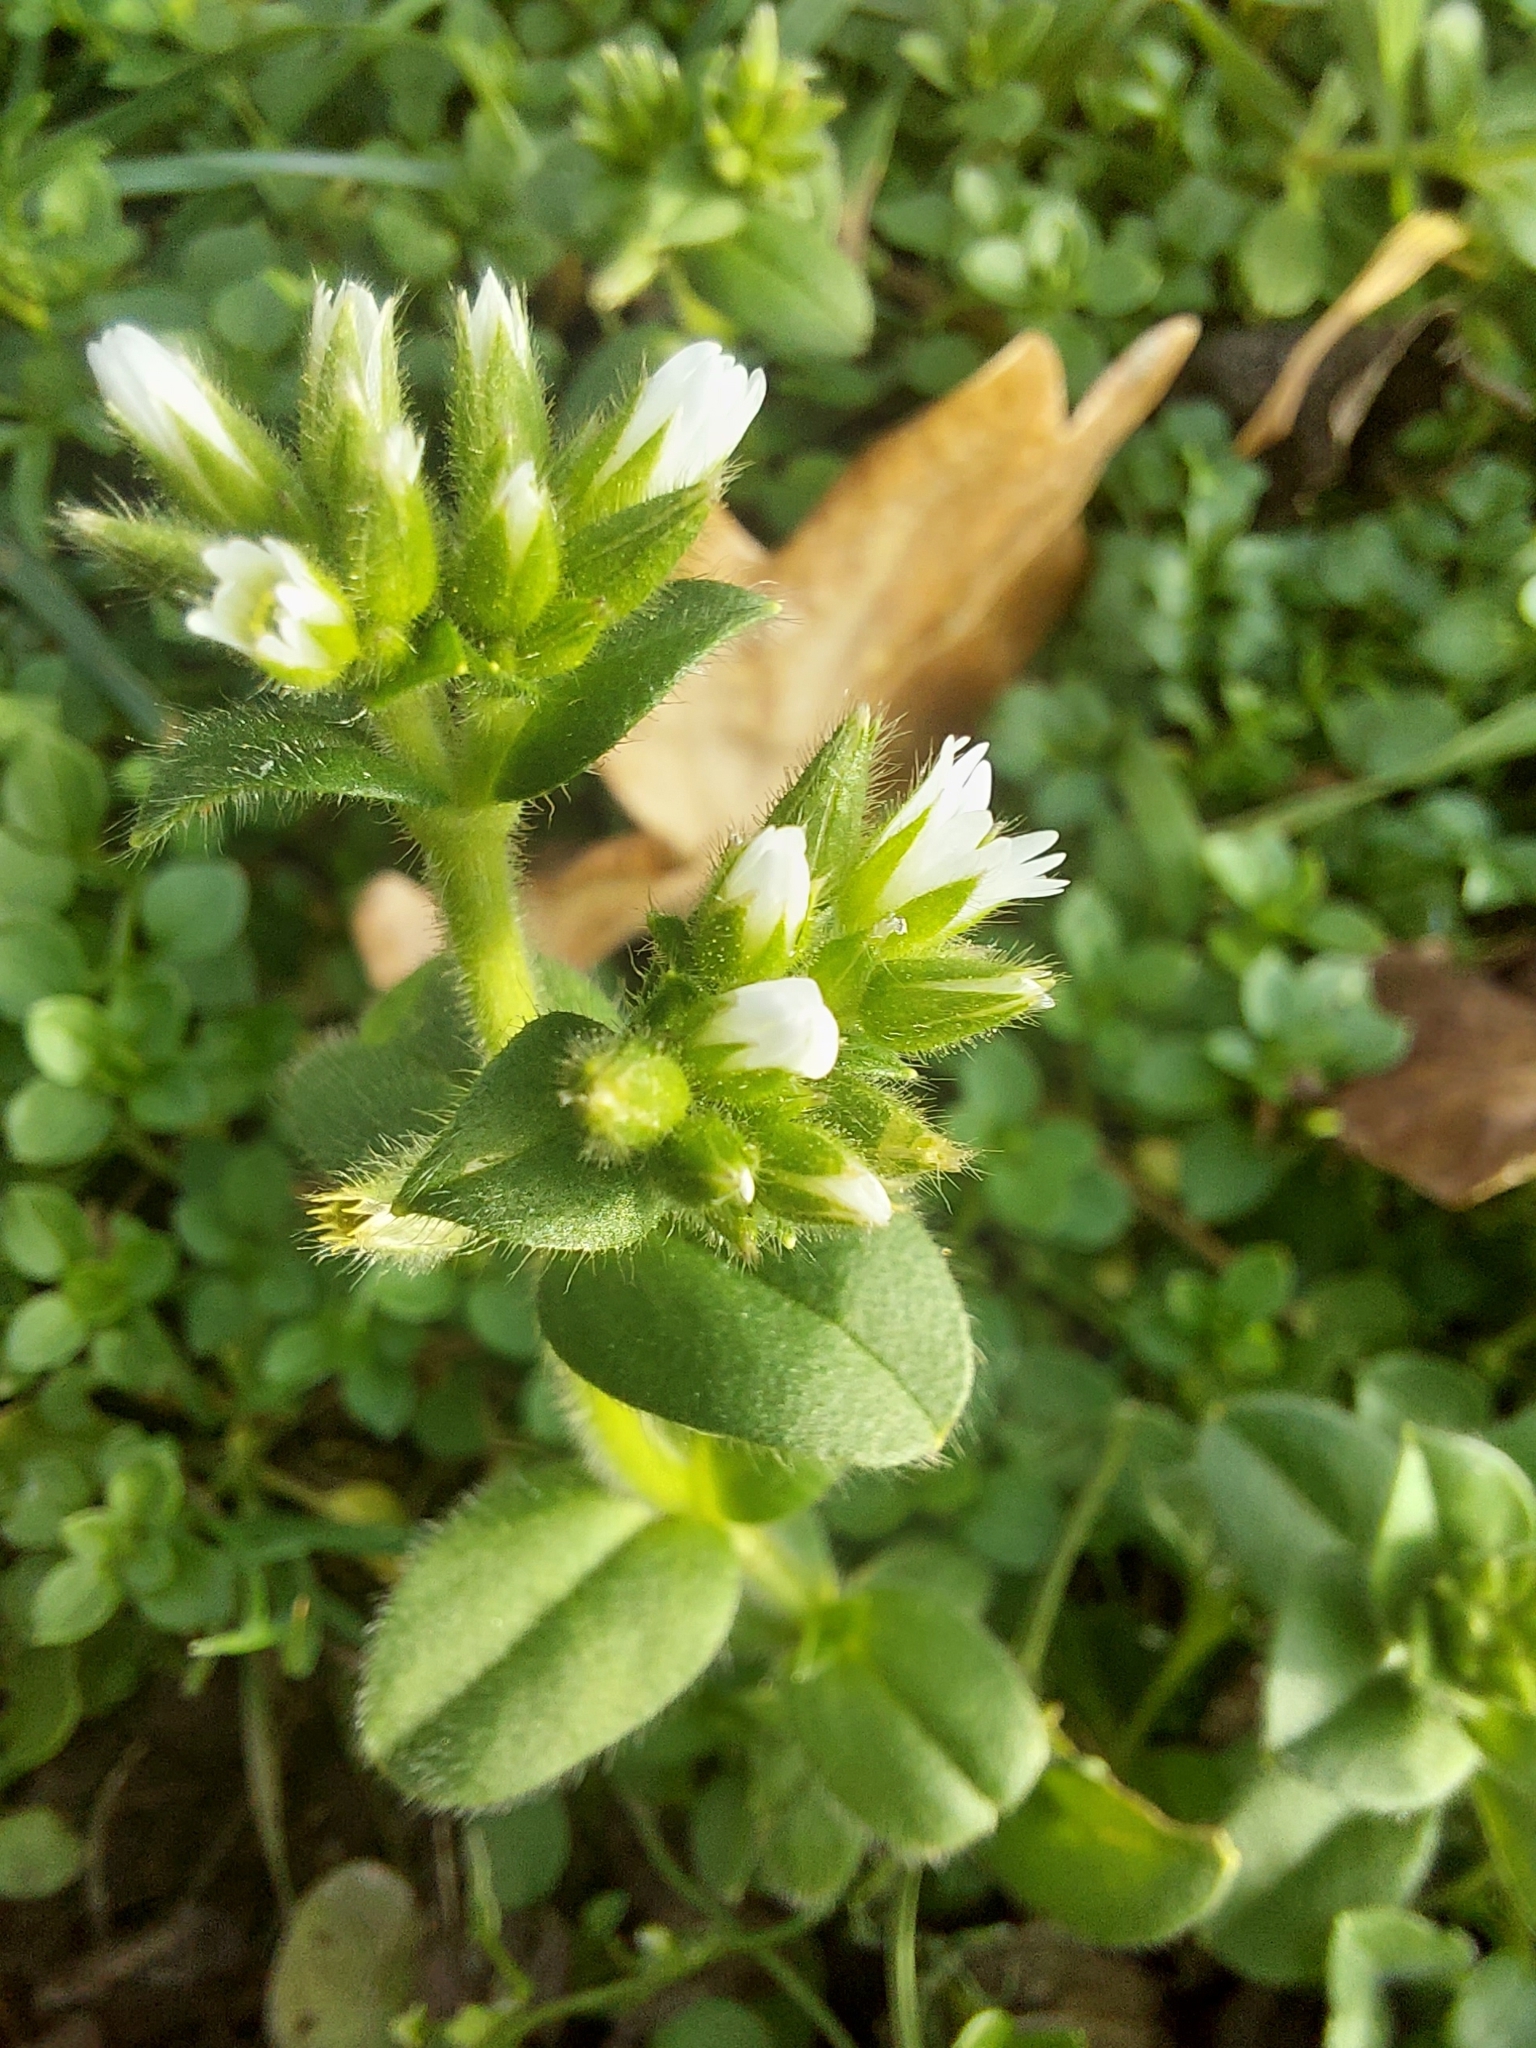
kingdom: Plantae
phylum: Tracheophyta
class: Magnoliopsida
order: Caryophyllales
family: Caryophyllaceae
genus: Cerastium
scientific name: Cerastium glomeratum
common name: Sticky chickweed
